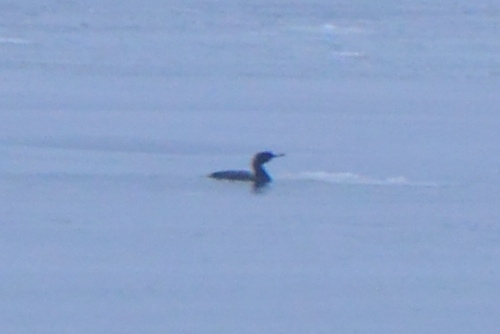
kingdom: Animalia
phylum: Chordata
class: Aves
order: Suliformes
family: Phalacrocoracidae
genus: Phalacrocorax
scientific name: Phalacrocorax pelagicus
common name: Pelagic cormorant
